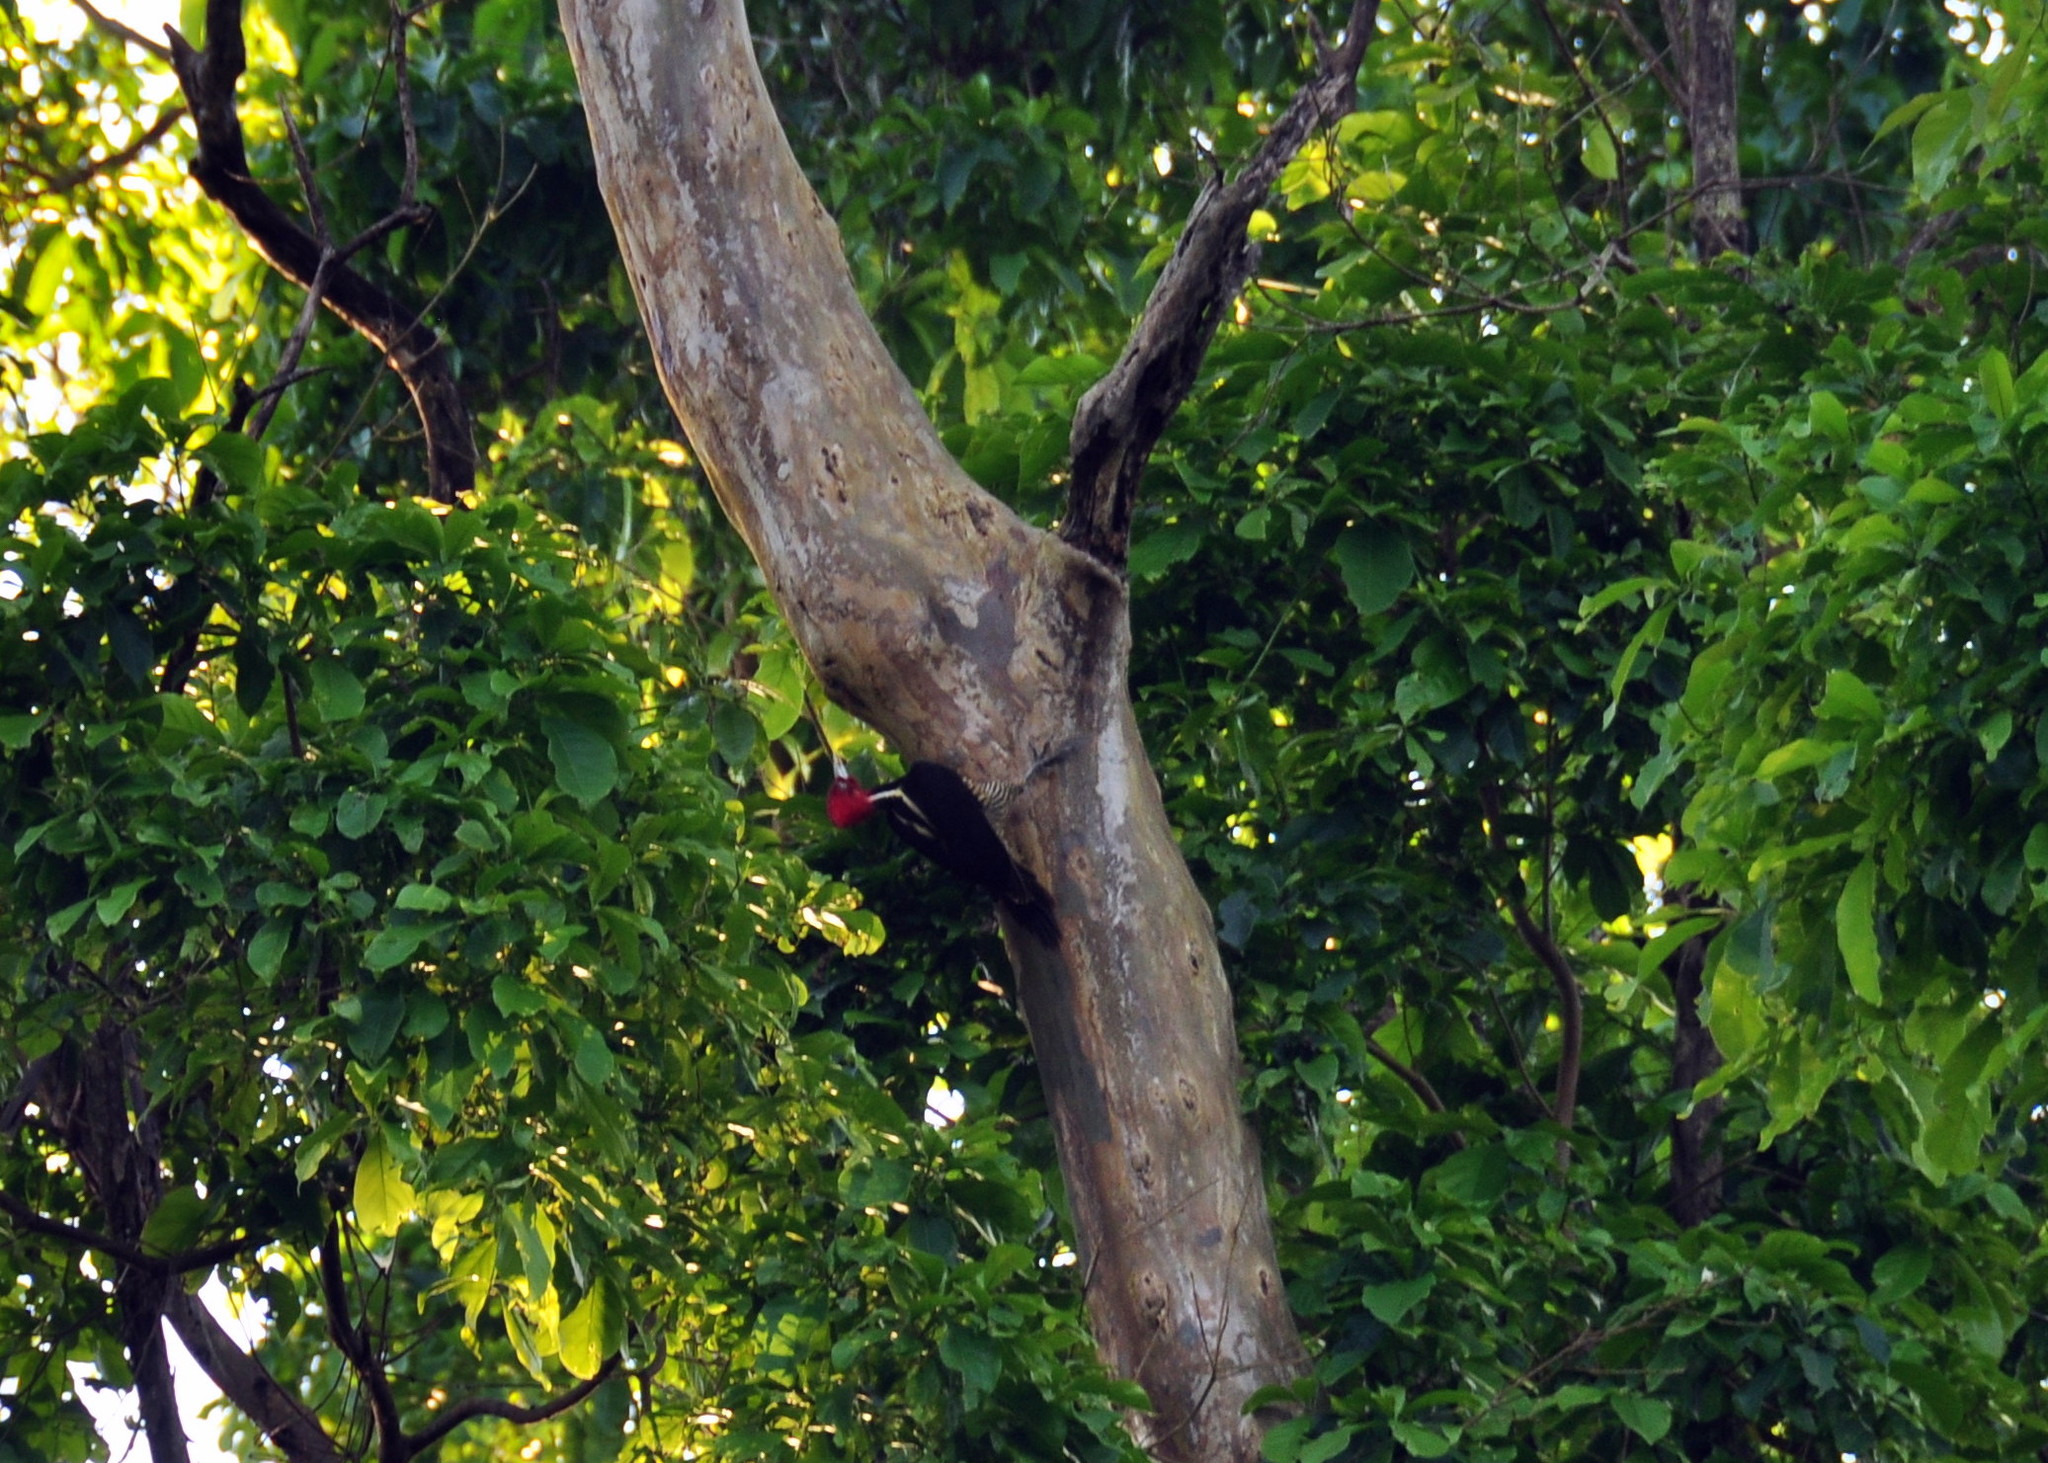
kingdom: Animalia
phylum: Chordata
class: Aves
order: Piciformes
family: Picidae
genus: Campephilus
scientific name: Campephilus guatemalensis
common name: Pale-billed woodpecker
